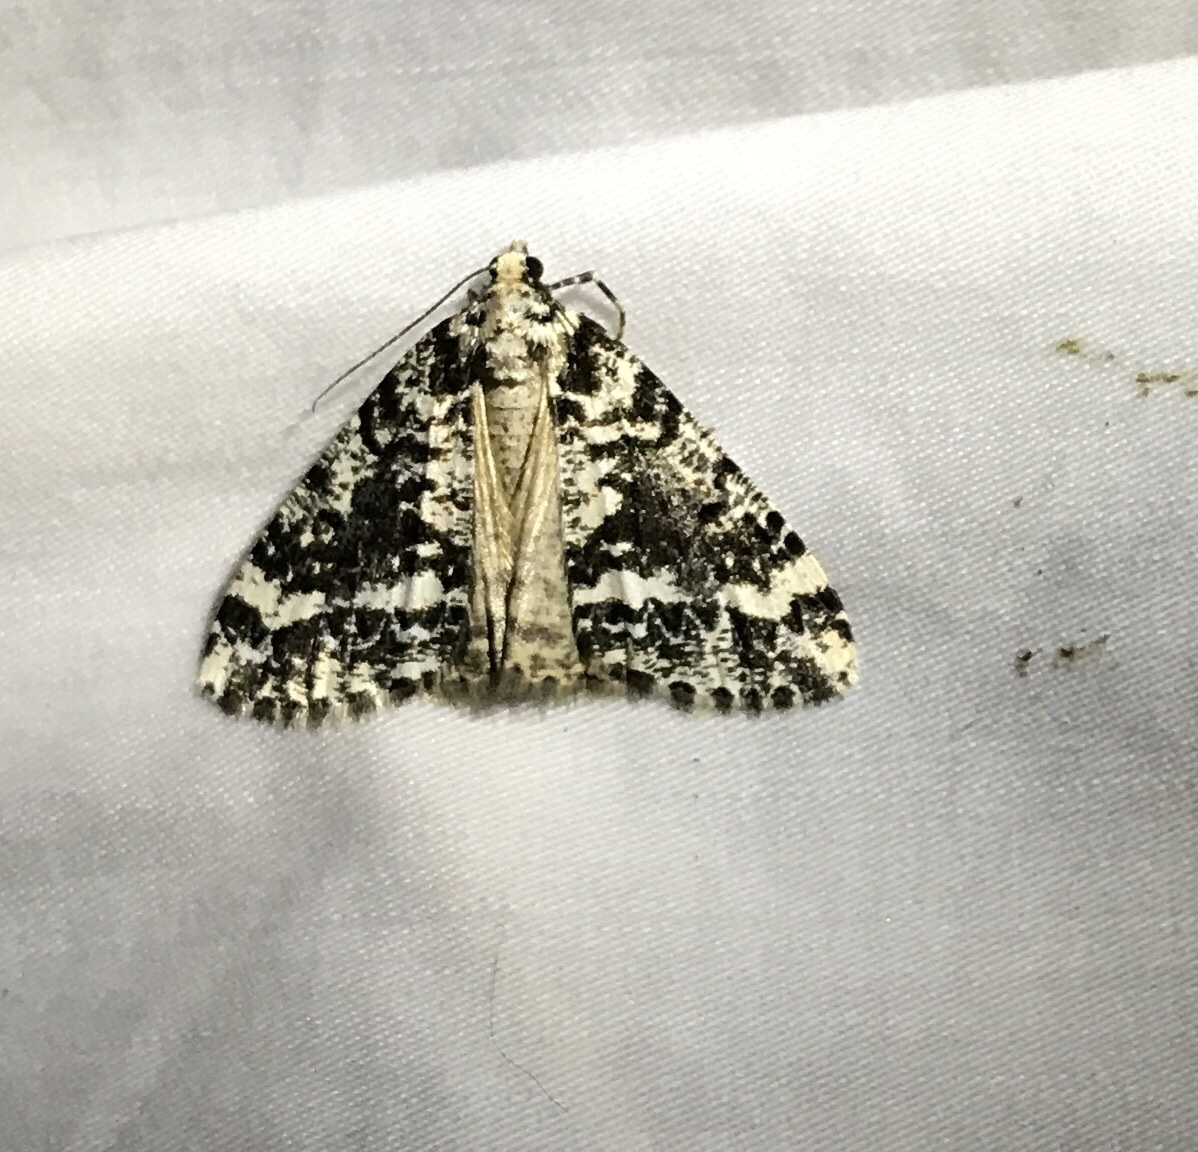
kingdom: Animalia
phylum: Arthropoda
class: Insecta
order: Lepidoptera
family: Geometridae
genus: Pseudocoremia
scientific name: Pseudocoremia leucelaea
